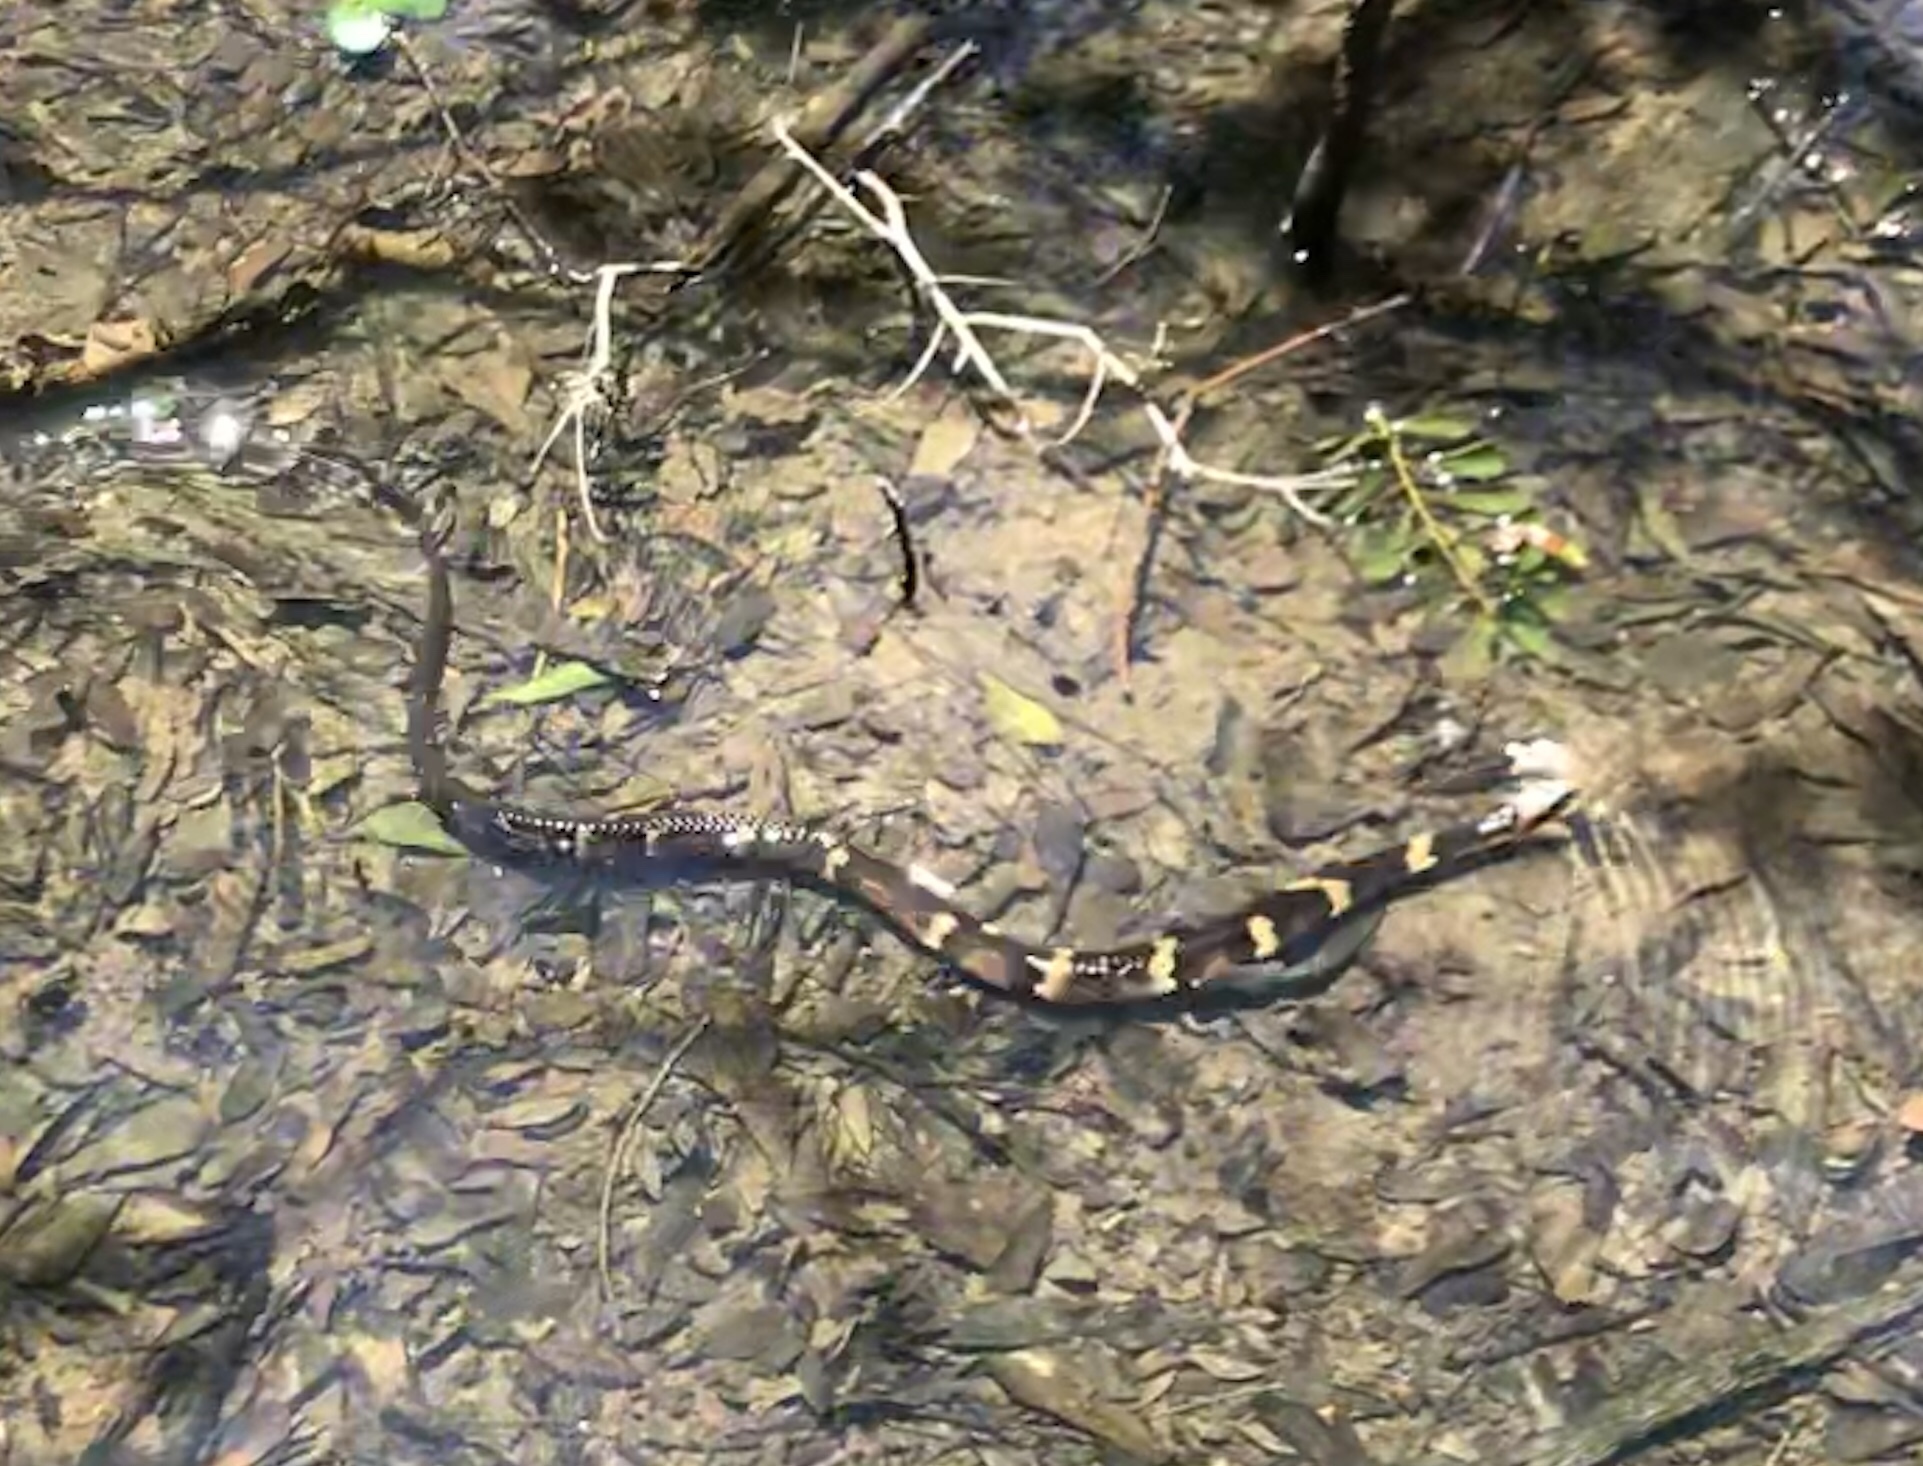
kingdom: Animalia
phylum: Chordata
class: Squamata
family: Colubridae
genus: Nerodia
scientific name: Nerodia fasciata
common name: Southern water snake
